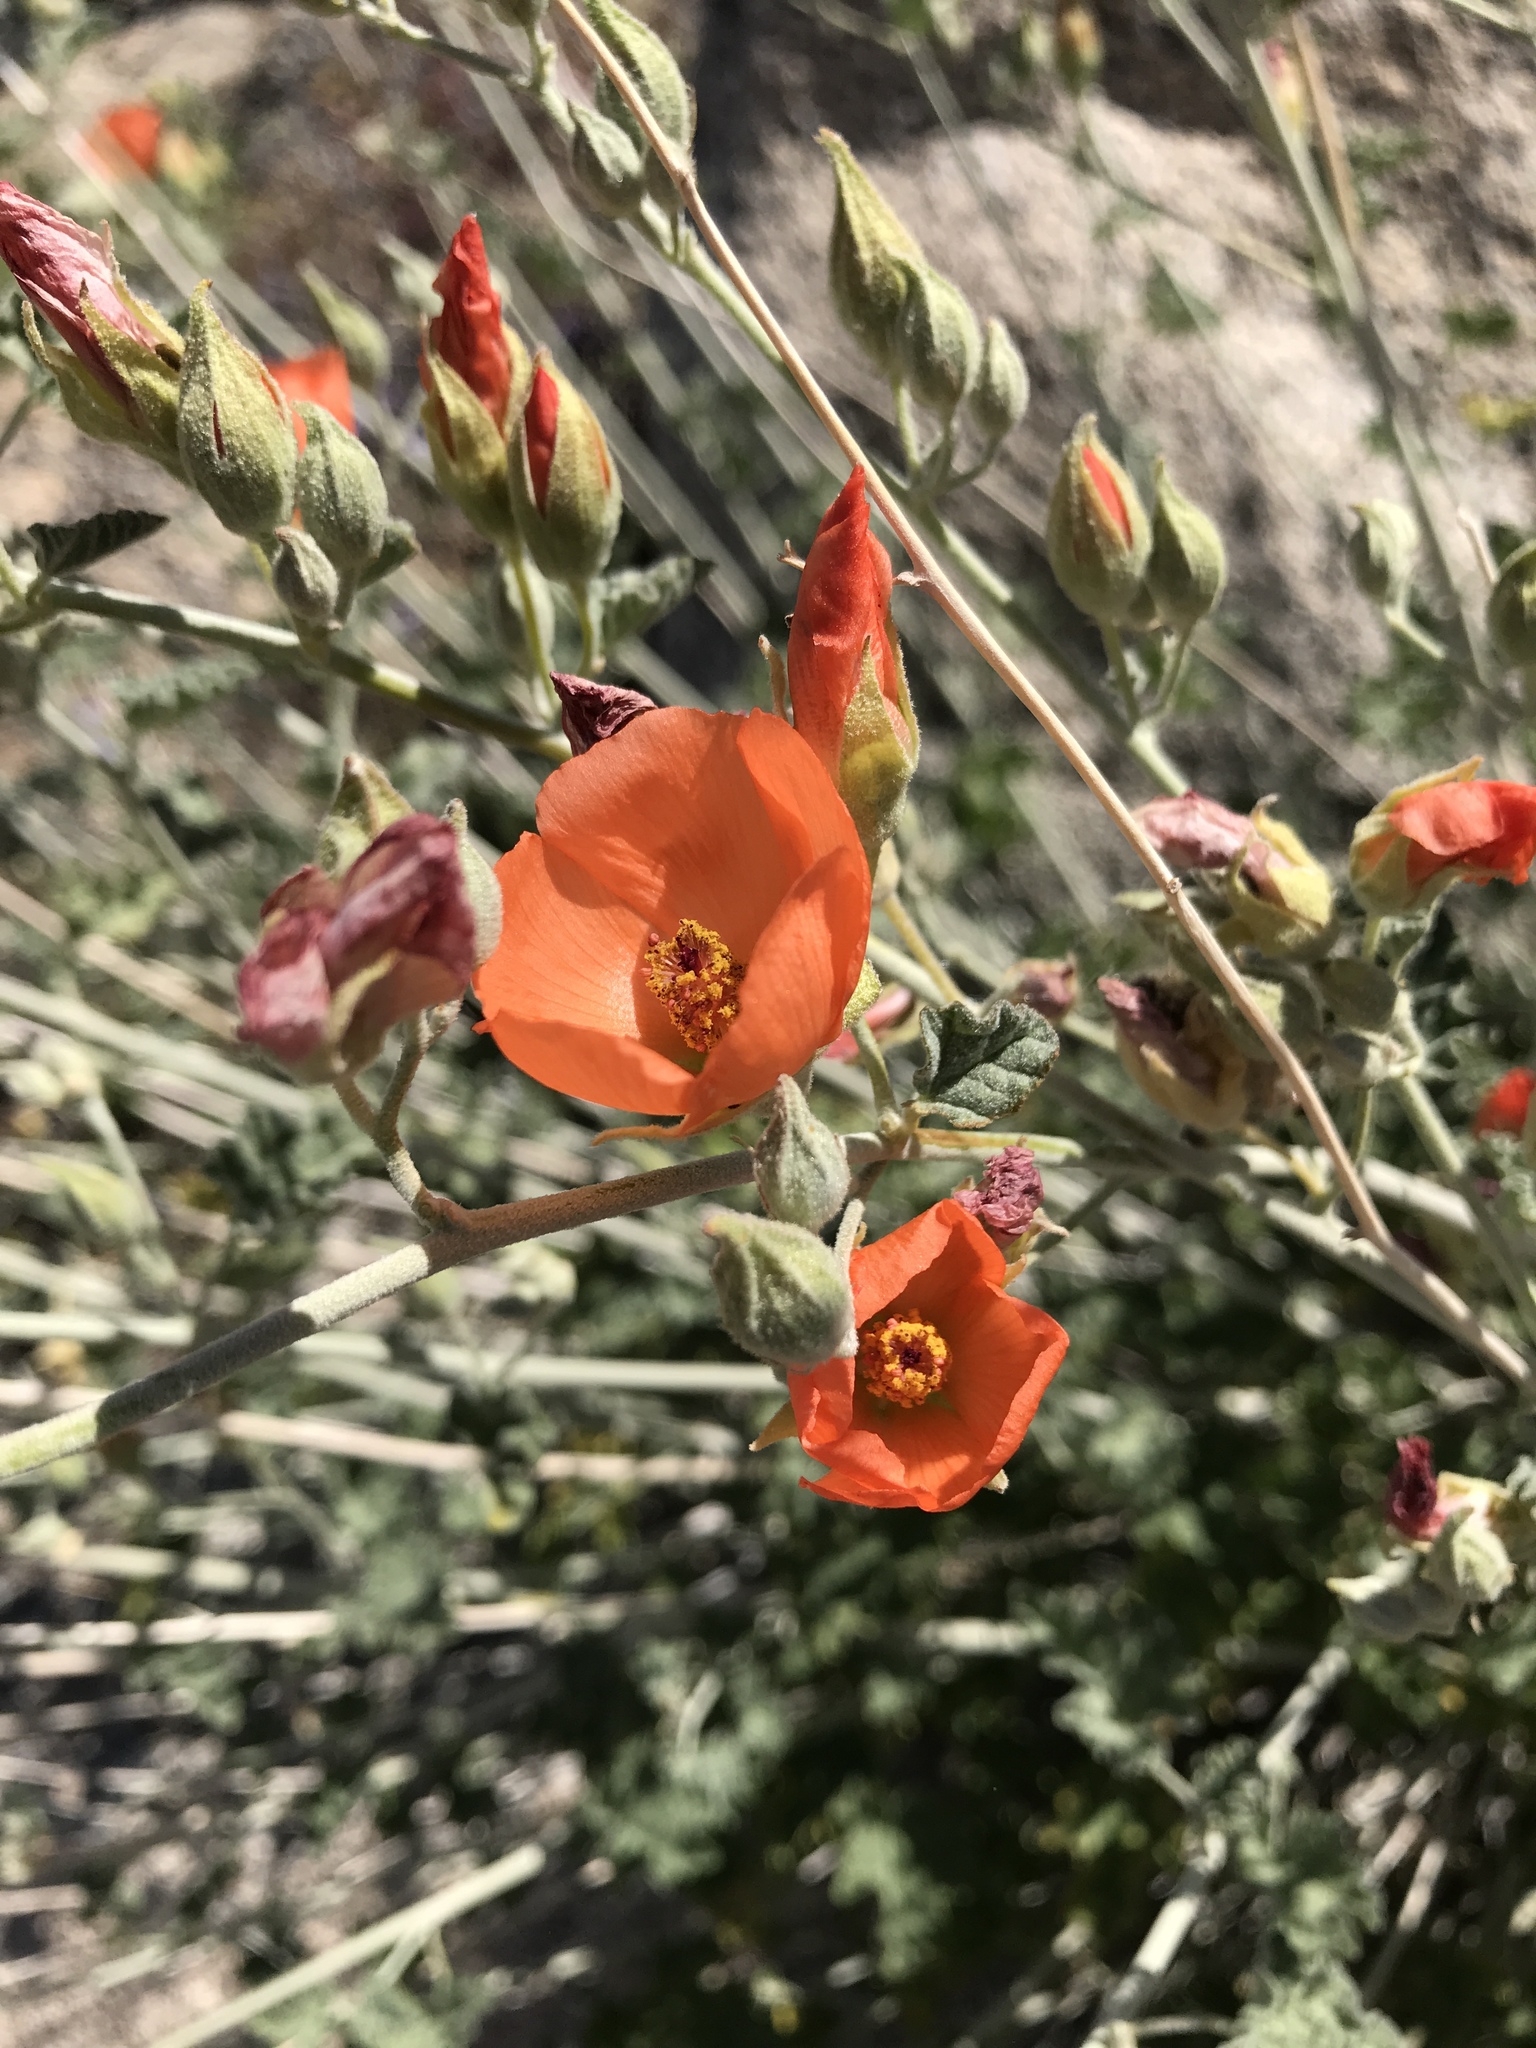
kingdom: Plantae
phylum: Tracheophyta
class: Magnoliopsida
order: Malvales
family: Malvaceae
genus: Sphaeralcea
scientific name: Sphaeralcea ambigua
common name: Apricot globe-mallow
